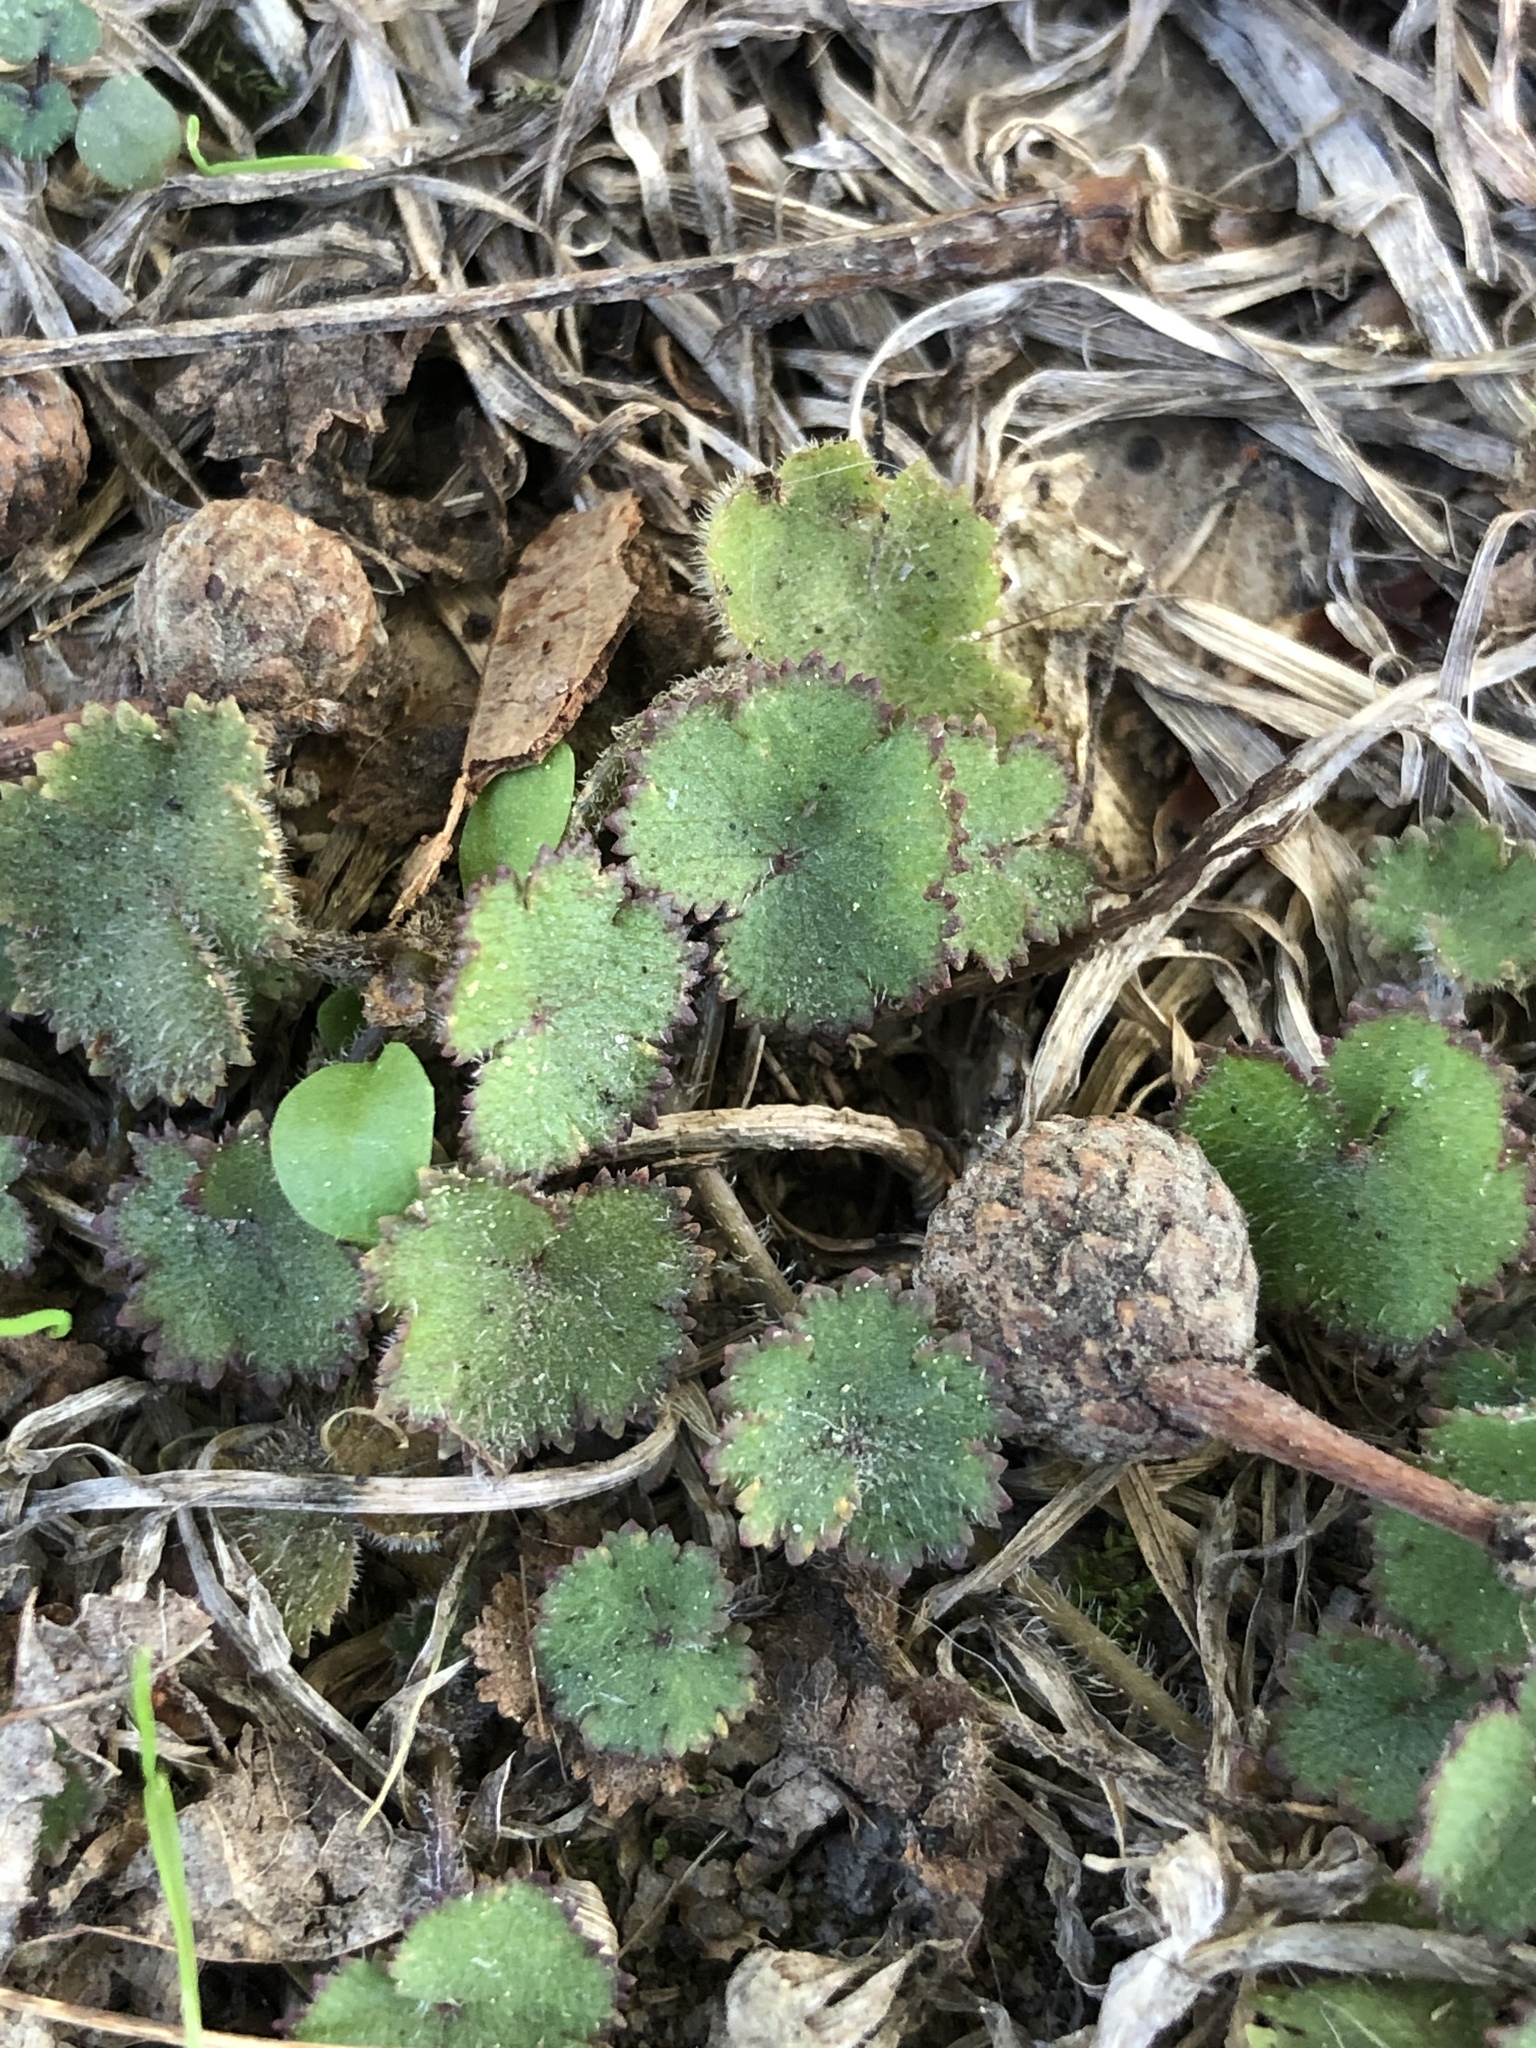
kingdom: Plantae
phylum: Tracheophyta
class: Magnoliopsida
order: Apiales
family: Araliaceae
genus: Hydrocotyle
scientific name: Hydrocotyle moschata
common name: Hairy pennywort
